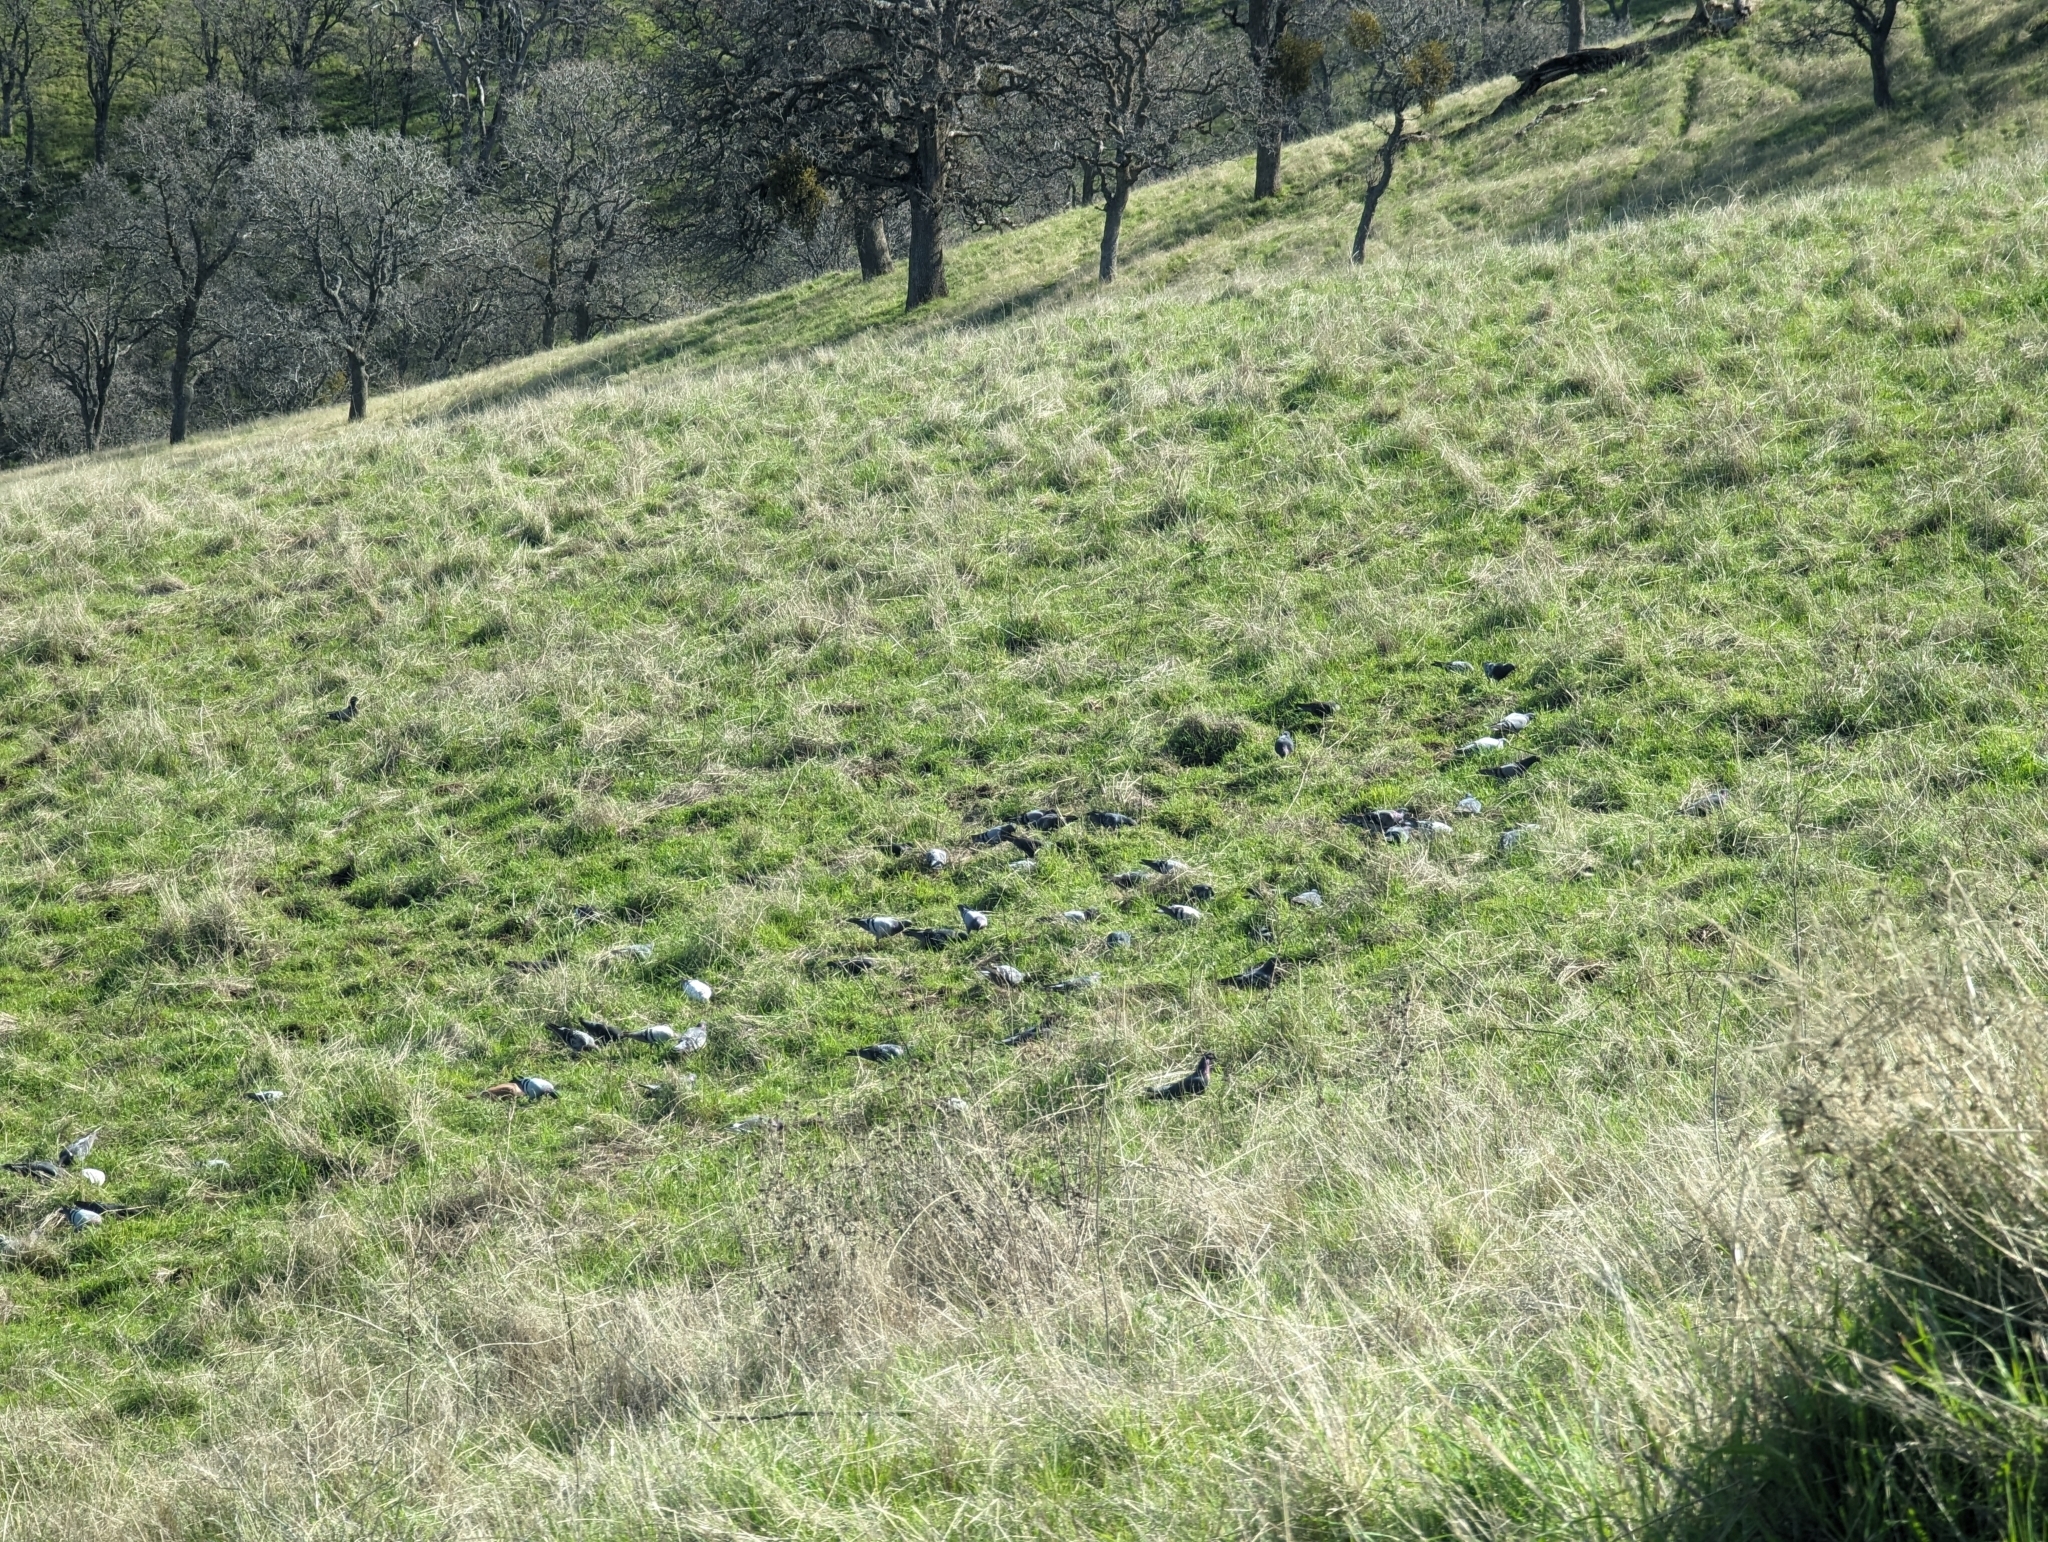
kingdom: Animalia
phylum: Chordata
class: Aves
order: Columbiformes
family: Columbidae
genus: Columba
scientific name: Columba livia
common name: Rock pigeon
